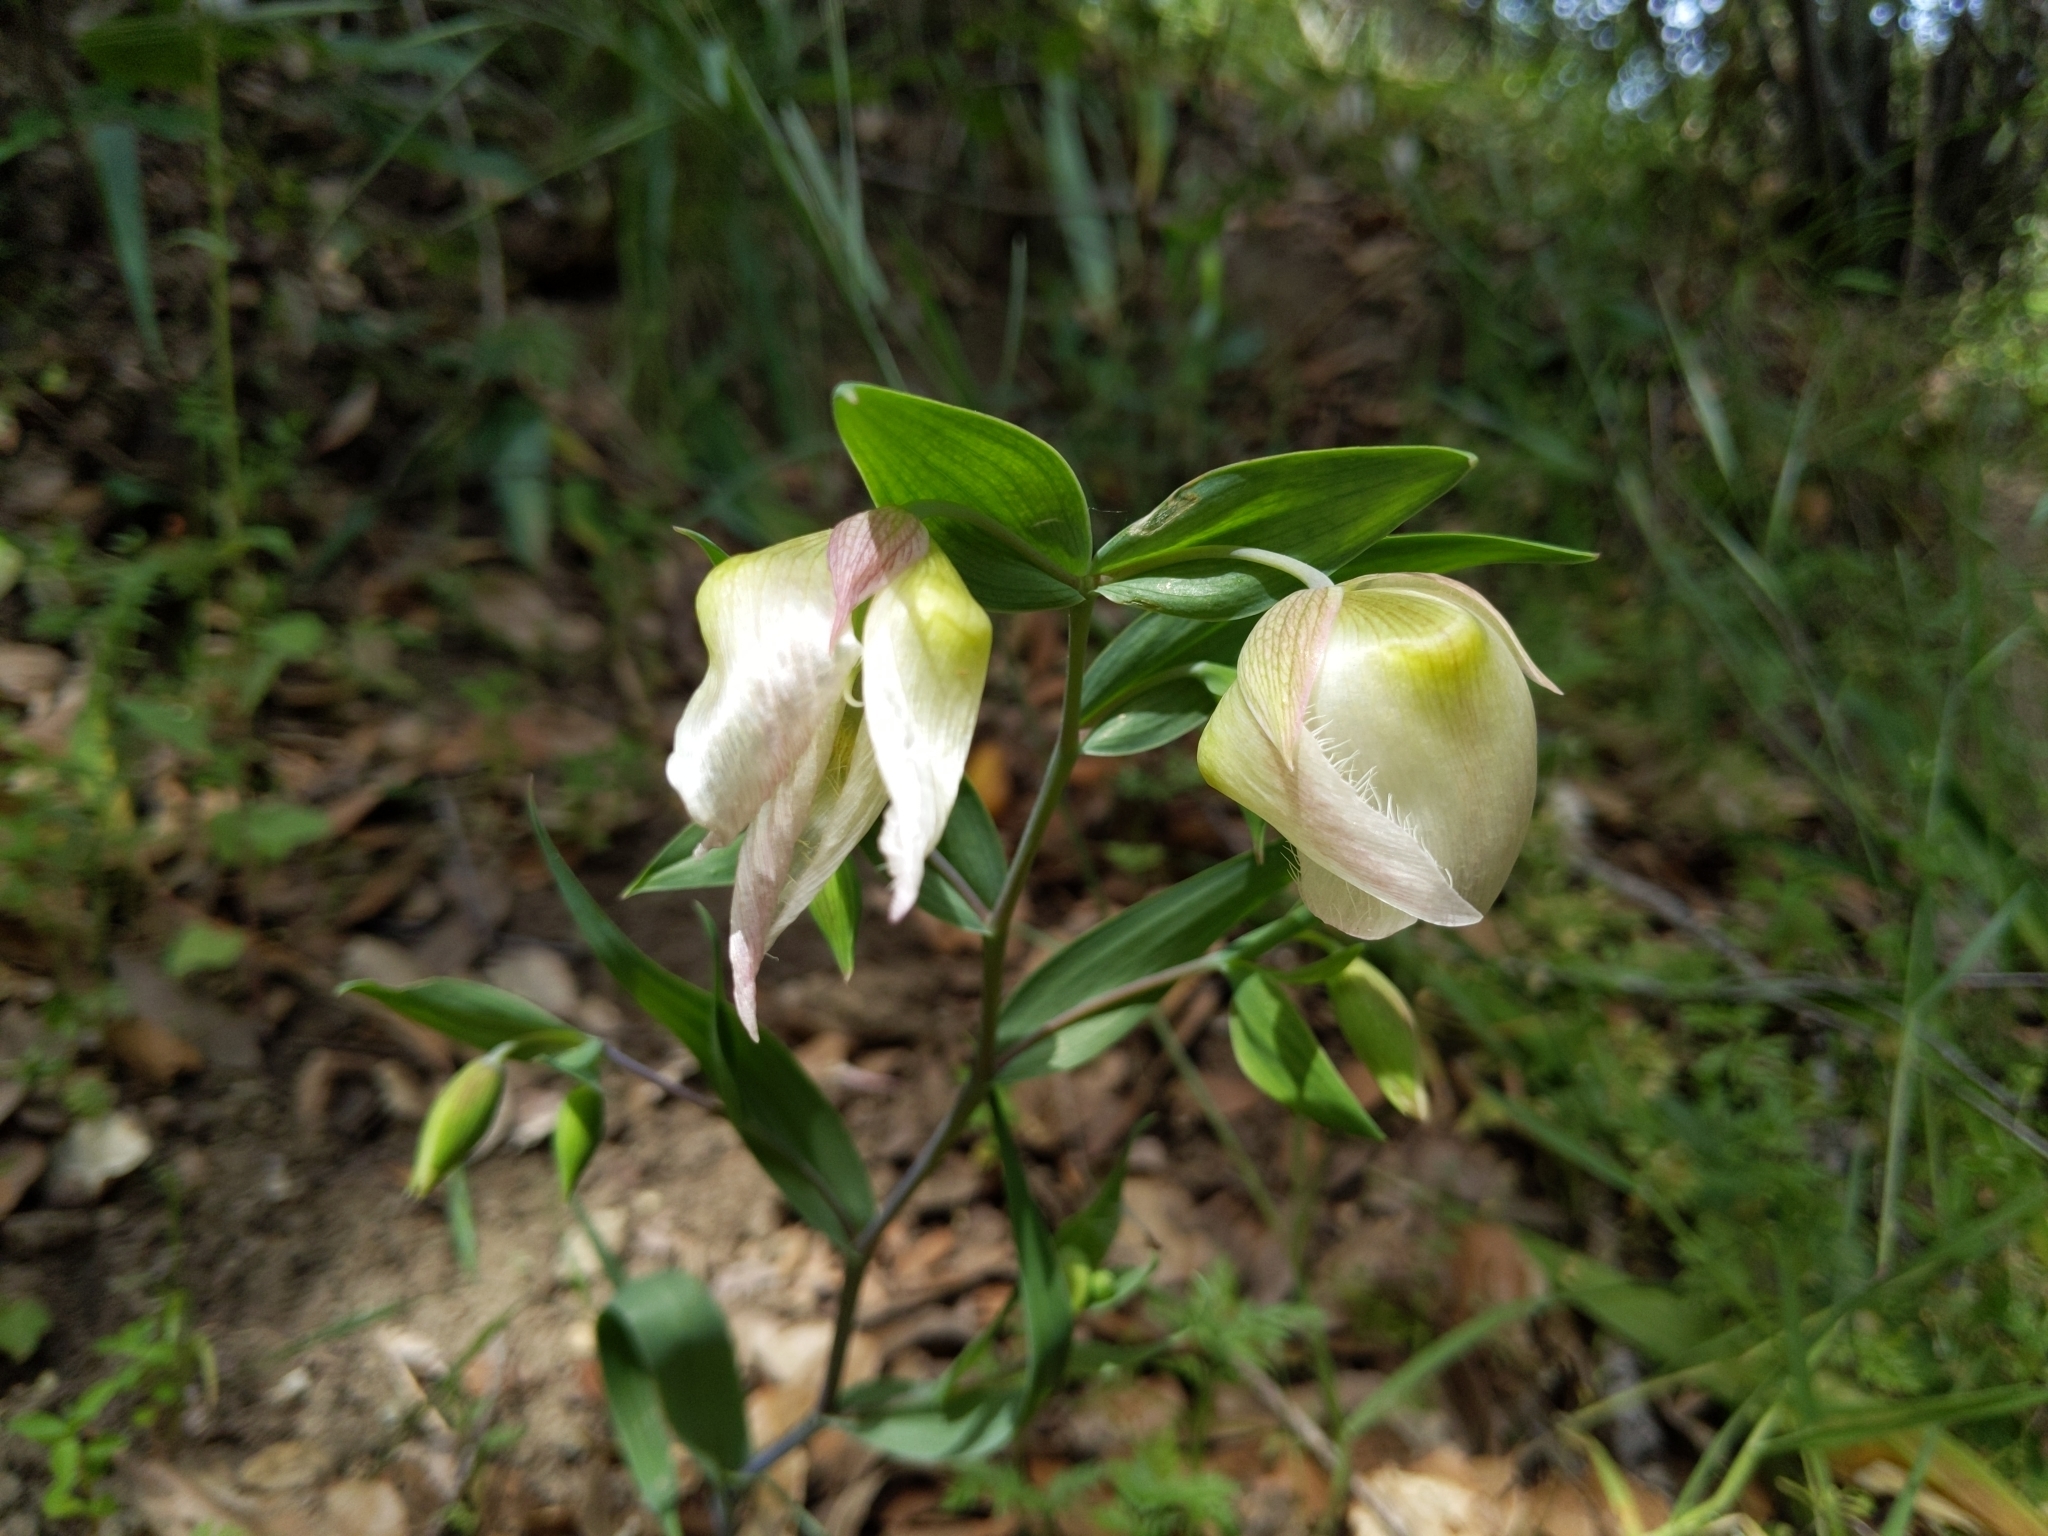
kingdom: Plantae
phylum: Tracheophyta
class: Liliopsida
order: Liliales
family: Liliaceae
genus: Calochortus
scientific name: Calochortus albus
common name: Fairy-lantern
